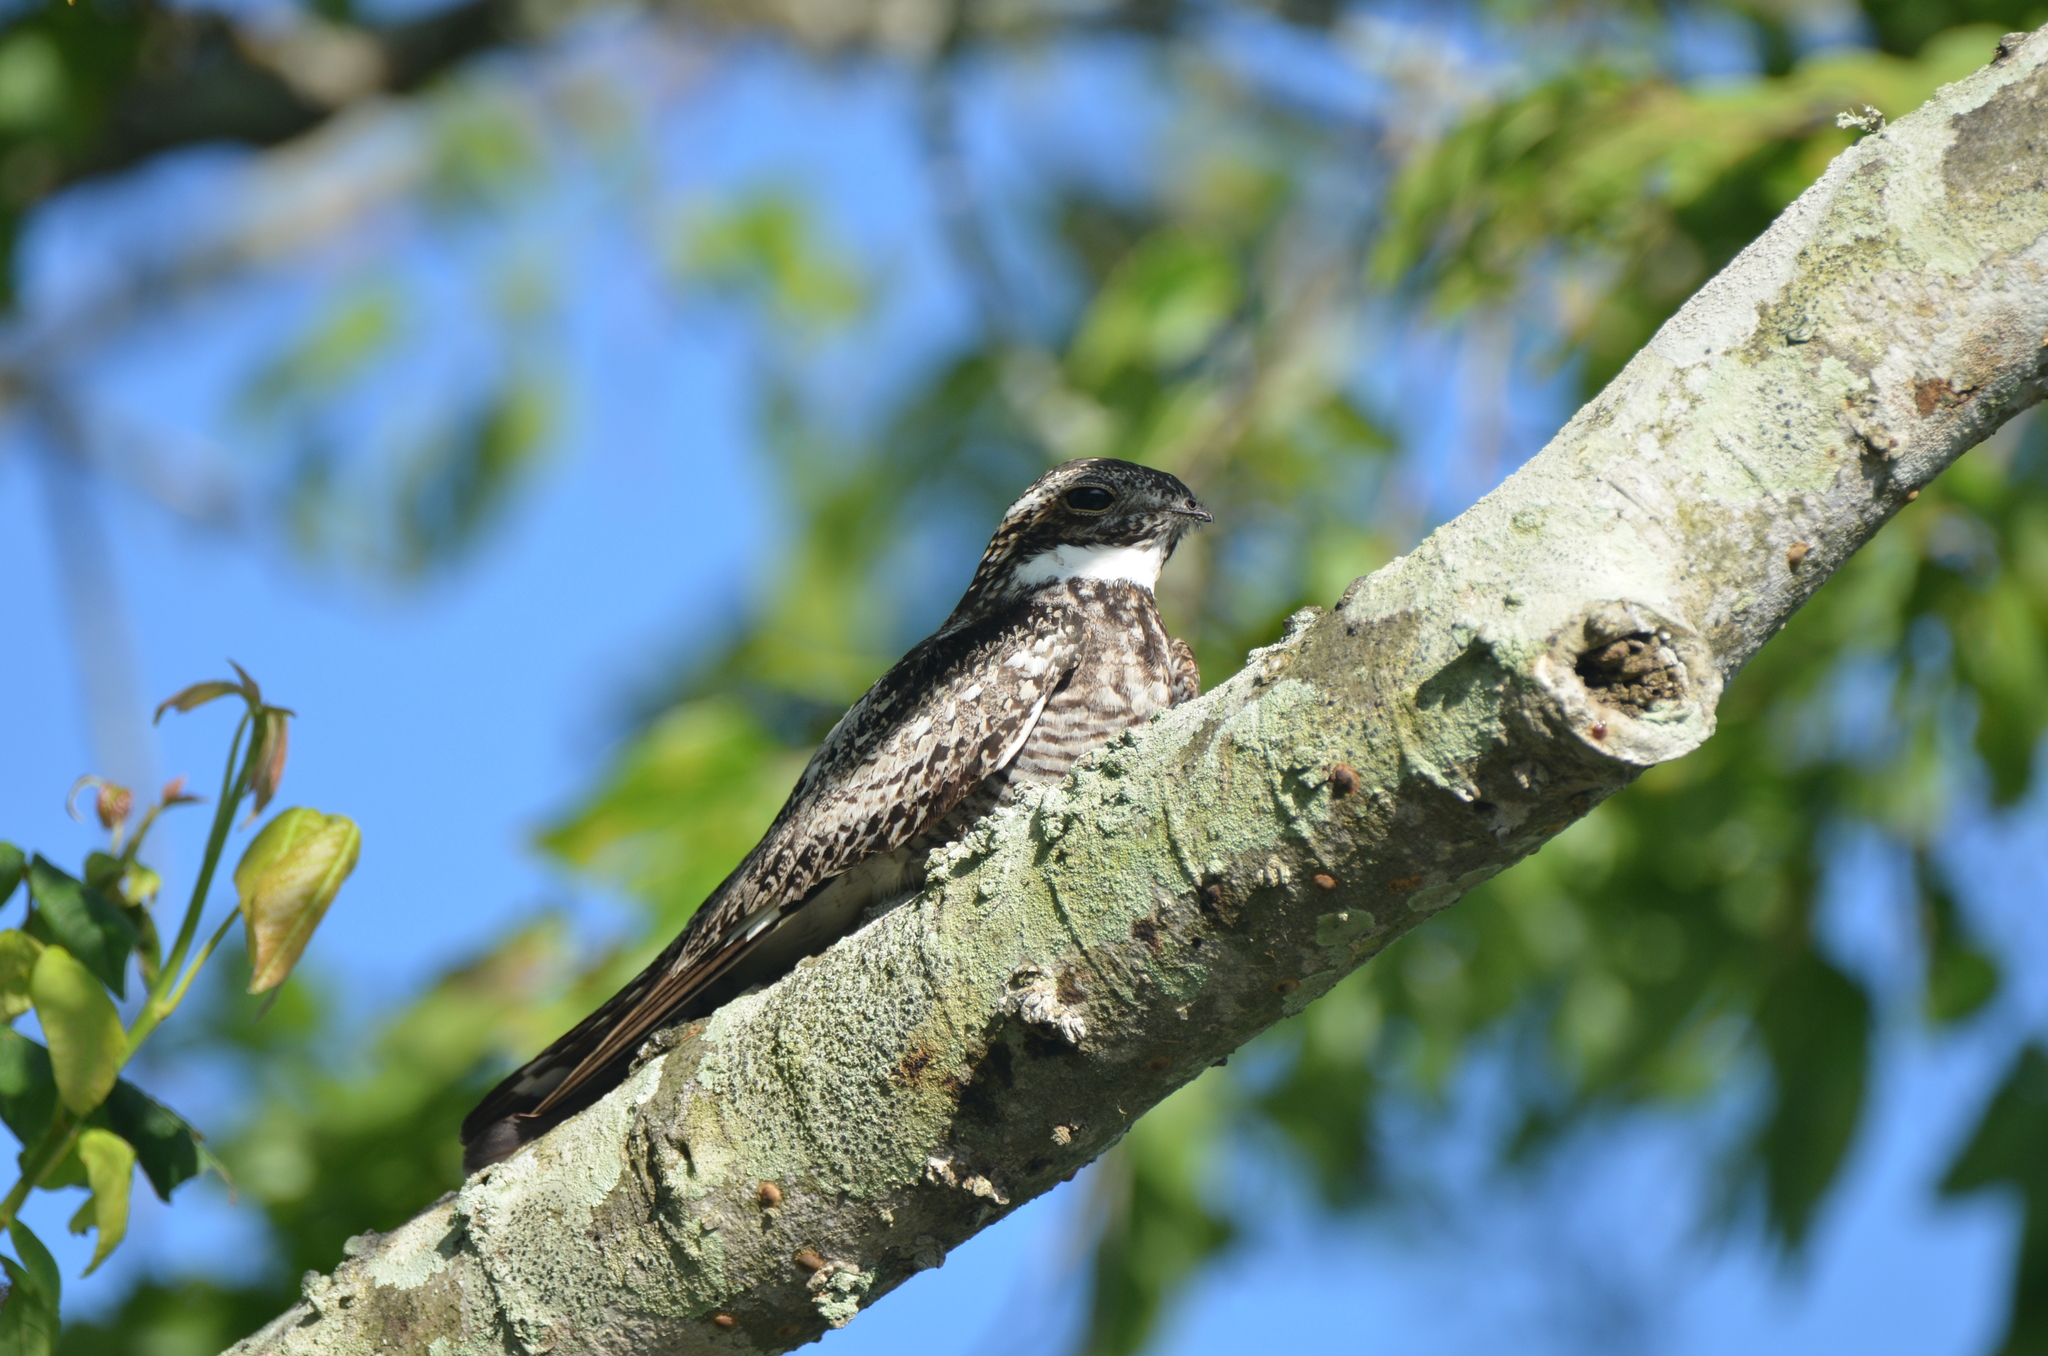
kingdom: Animalia
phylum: Chordata
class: Aves
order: Caprimulgiformes
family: Caprimulgidae
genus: Chordeiles
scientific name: Chordeiles minor
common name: Common nighthawk
